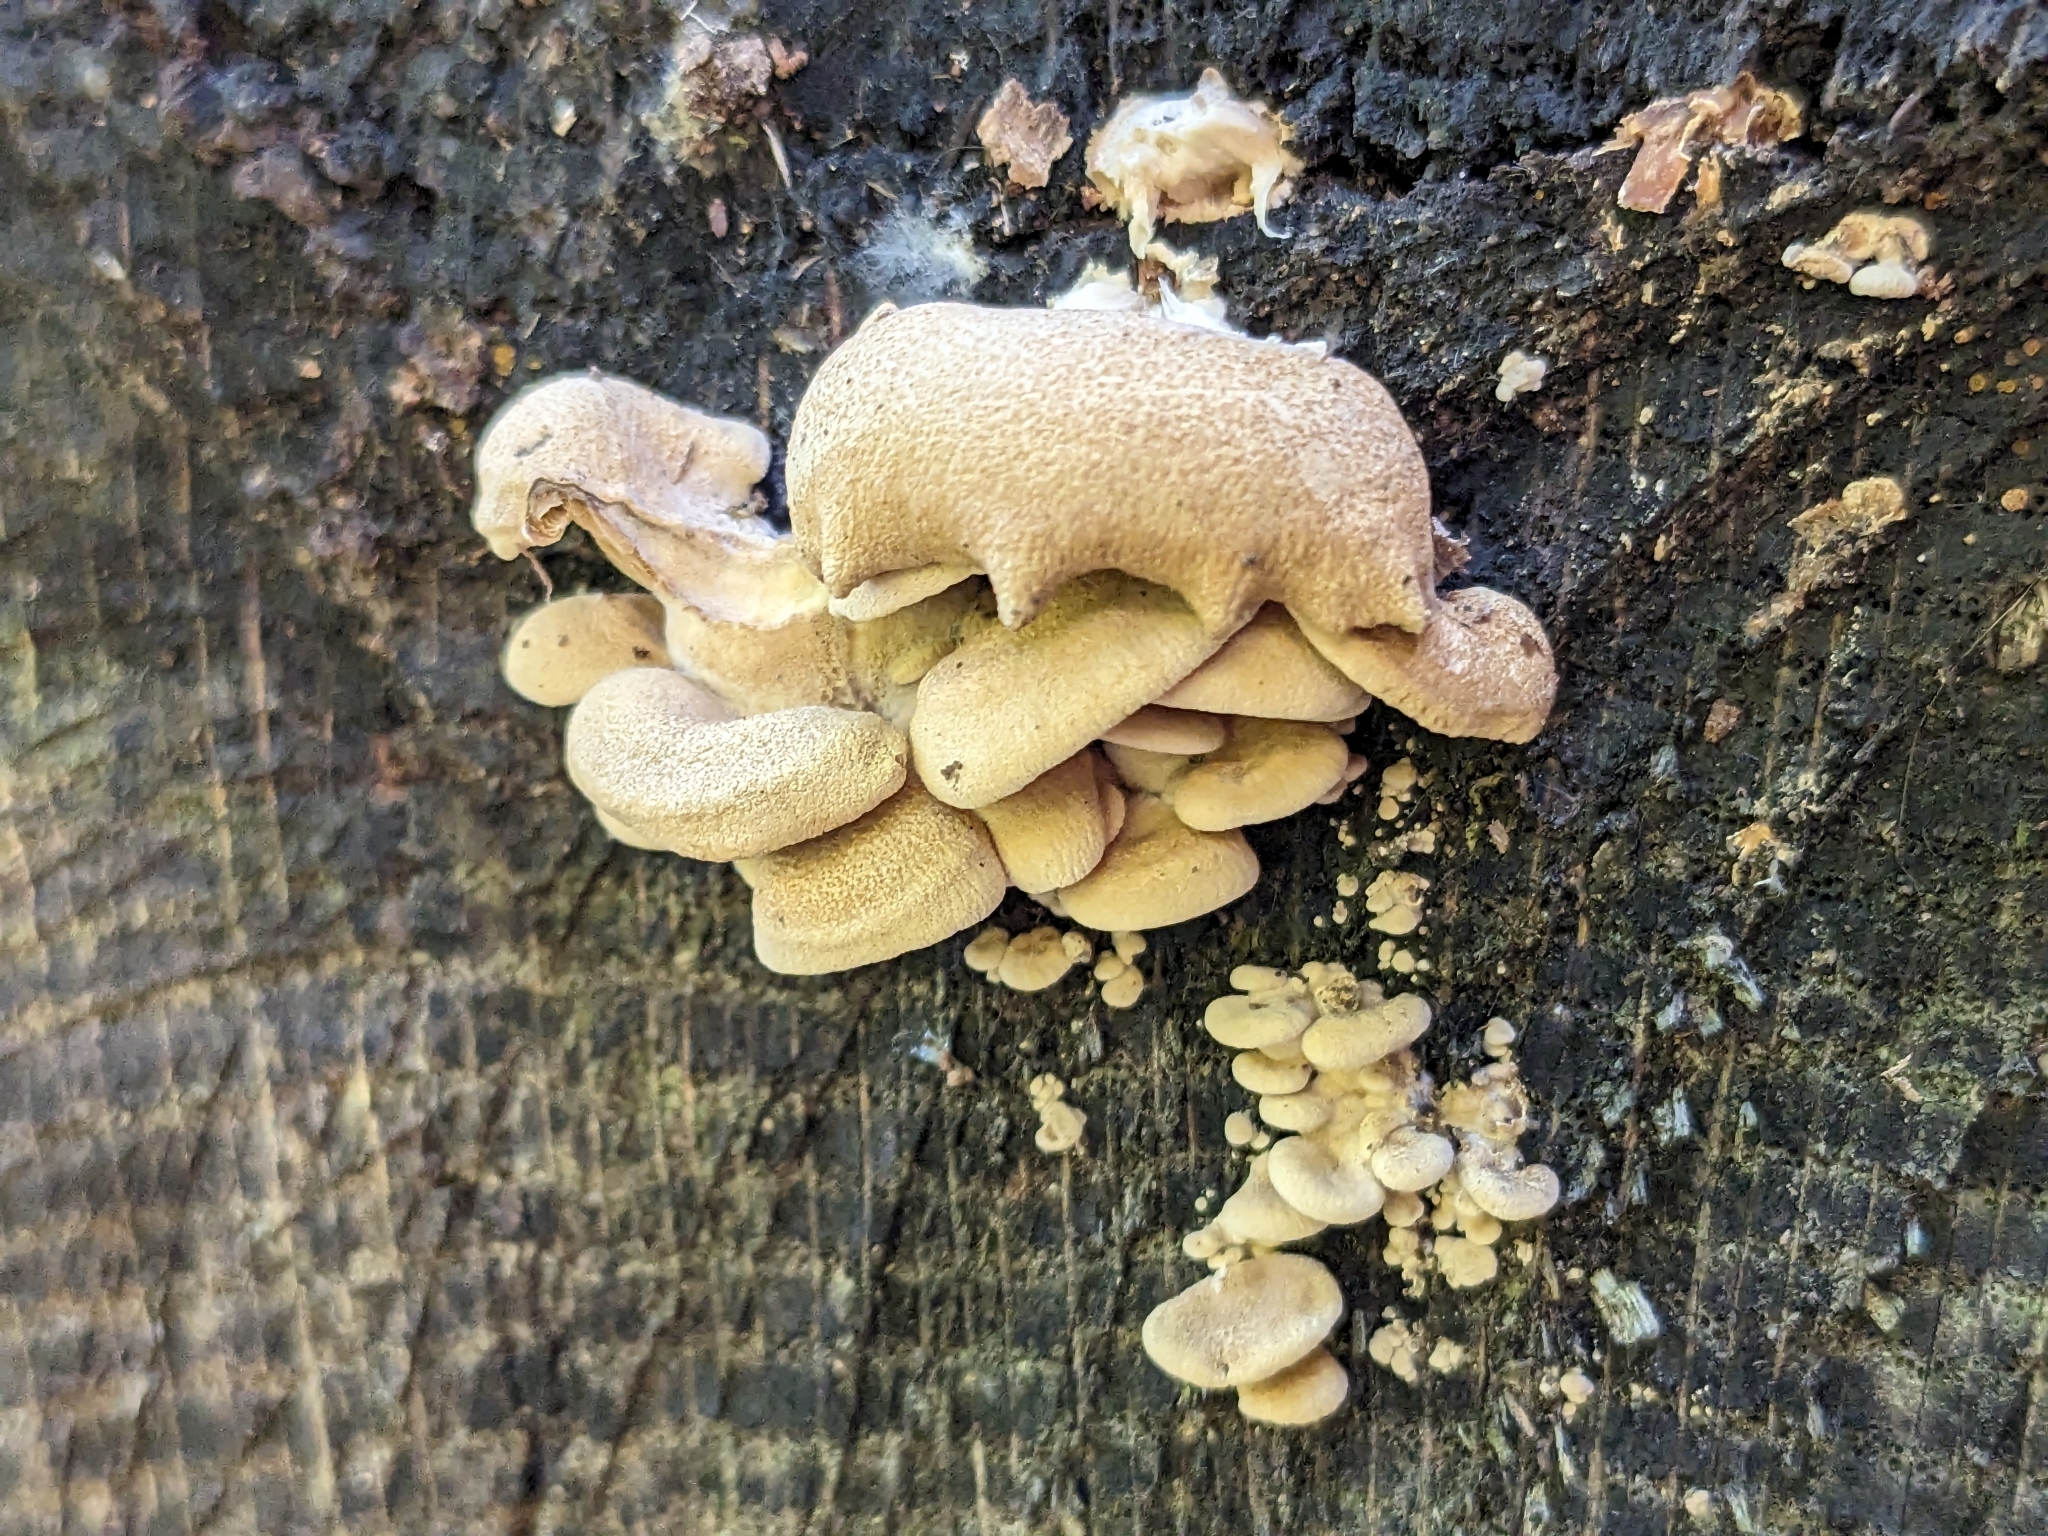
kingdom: Fungi
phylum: Basidiomycota
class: Agaricomycetes
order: Agaricales
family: Mycenaceae
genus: Panellus
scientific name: Panellus stipticus
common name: Bitter oysterling
